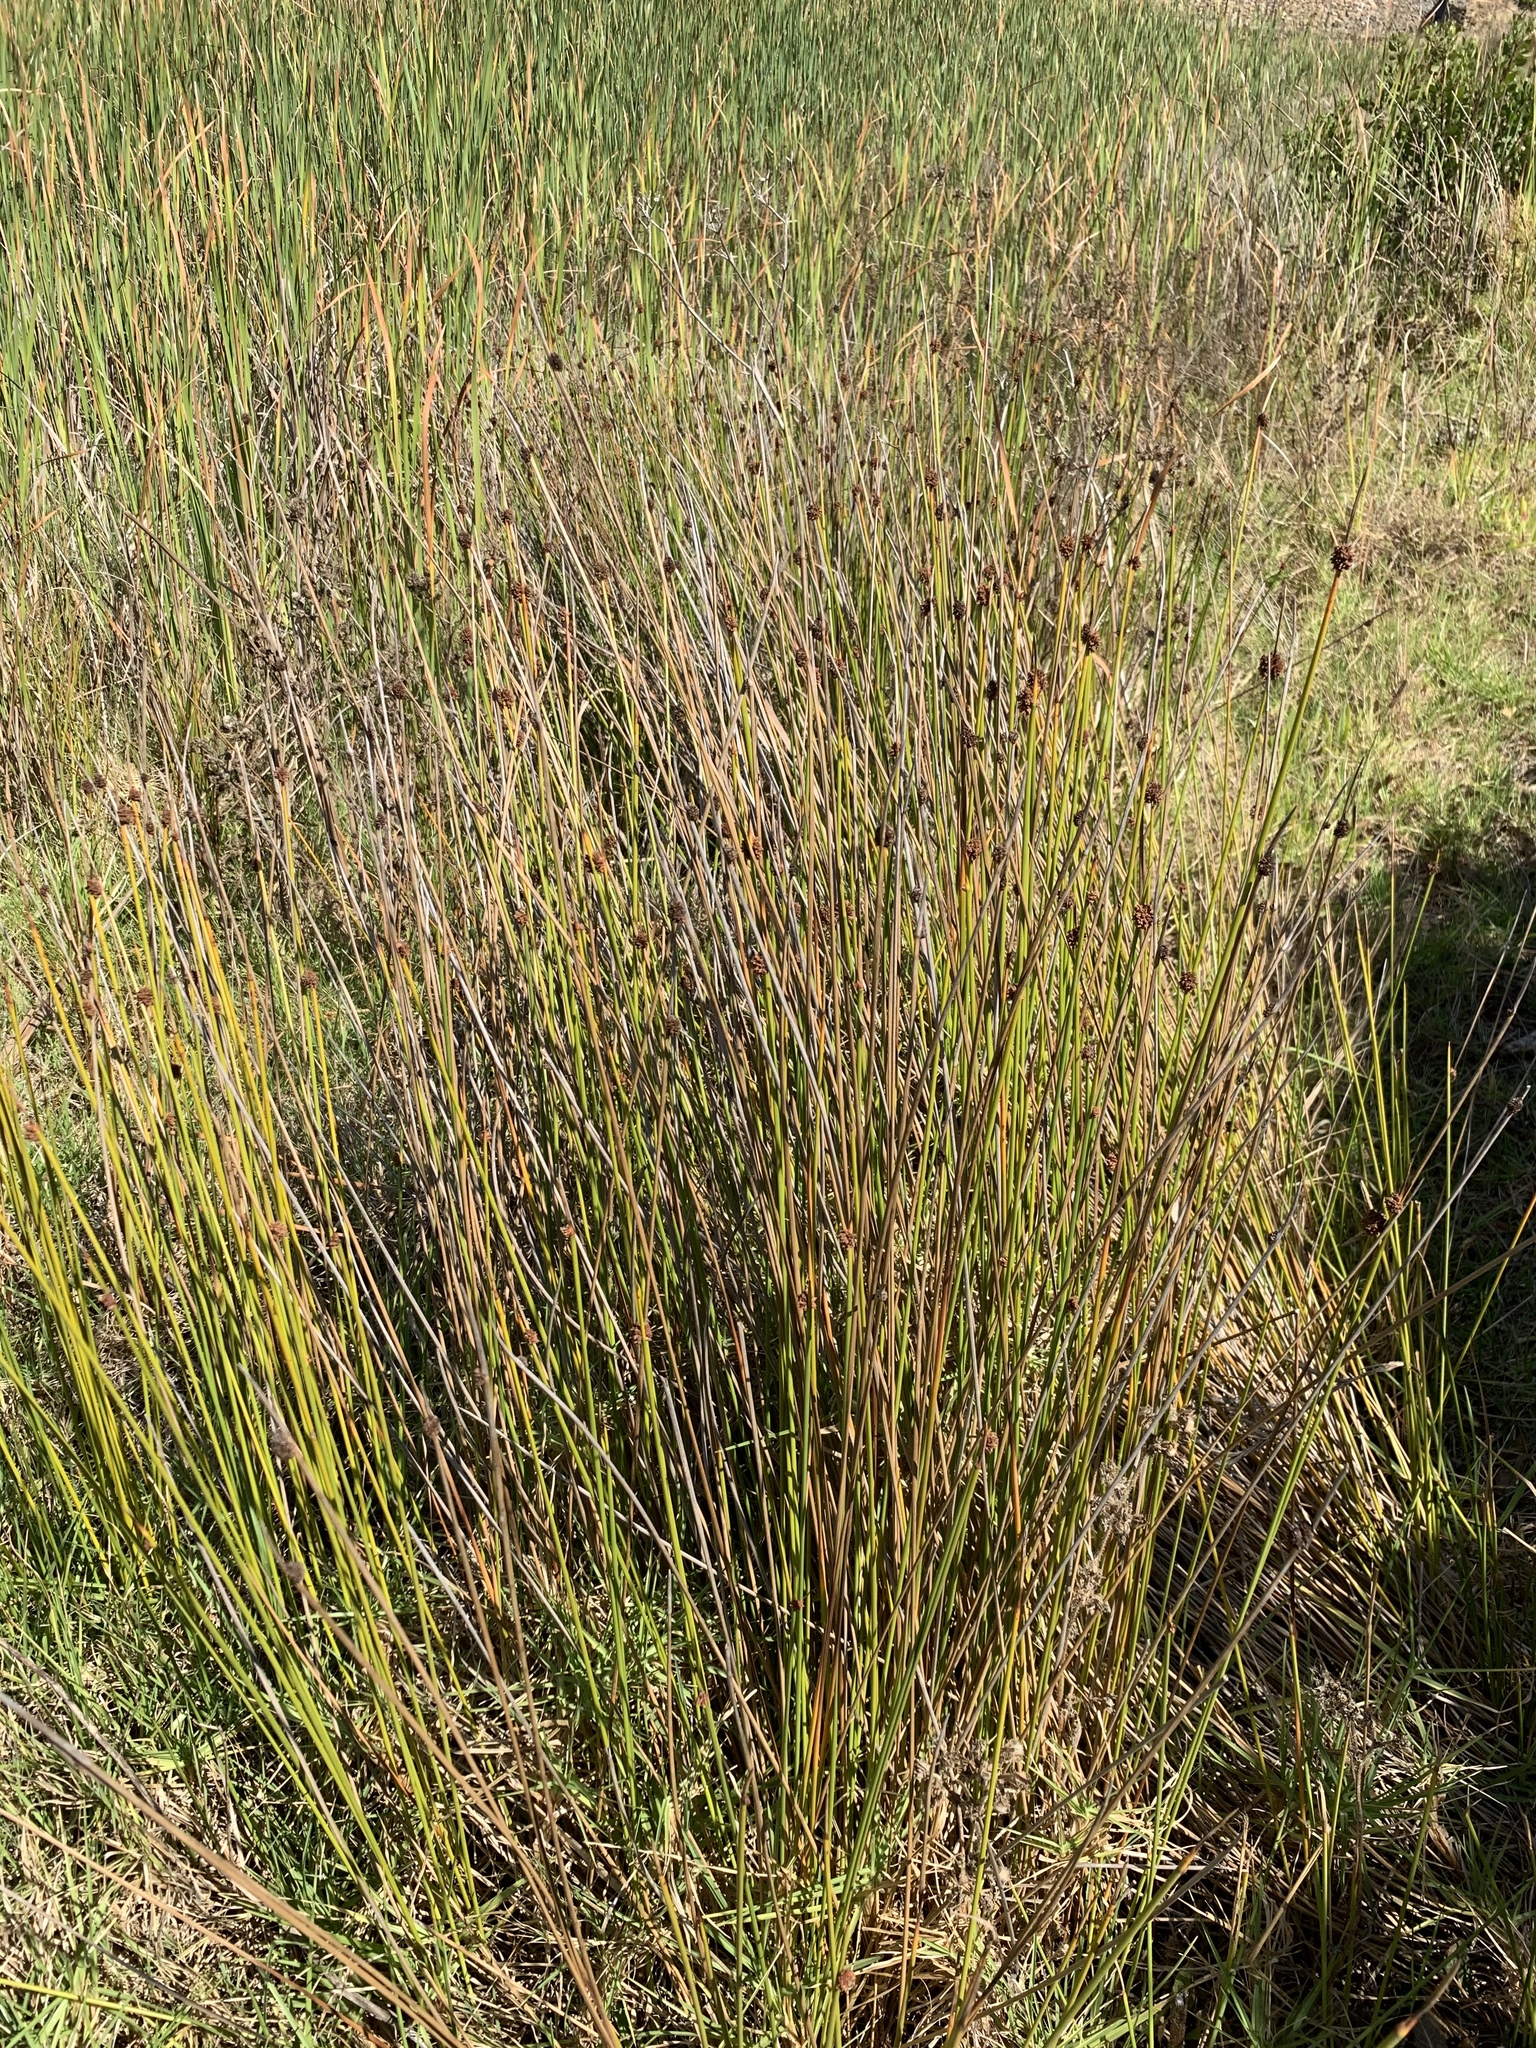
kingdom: Plantae
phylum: Tracheophyta
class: Liliopsida
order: Poales
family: Cyperaceae
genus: Ficinia
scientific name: Ficinia nodosa
